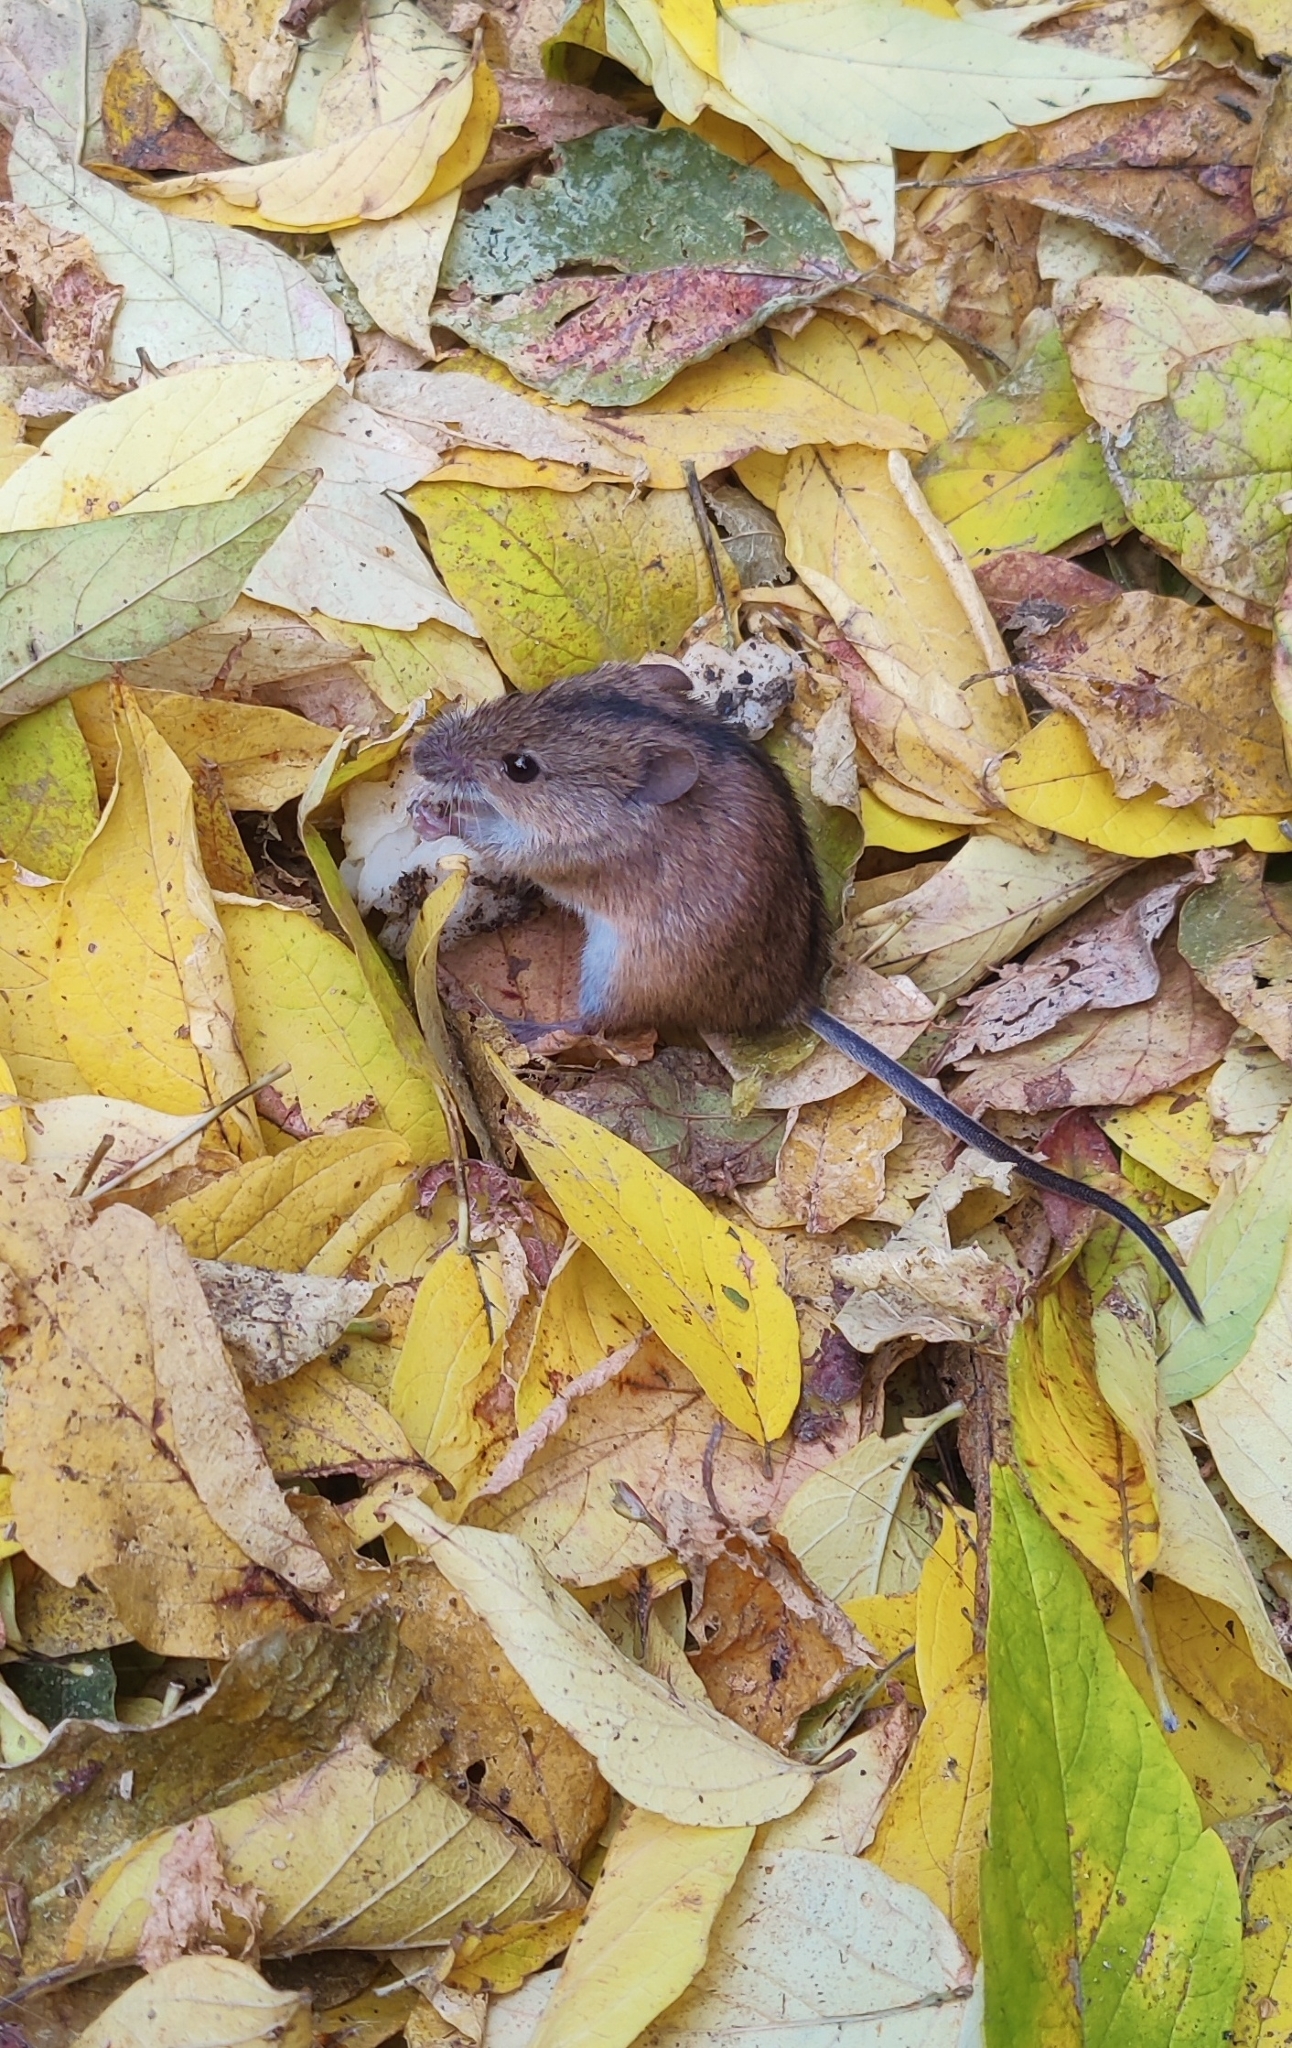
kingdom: Animalia
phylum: Chordata
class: Mammalia
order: Rodentia
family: Muridae
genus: Apodemus
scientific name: Apodemus agrarius
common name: Striped field mouse
